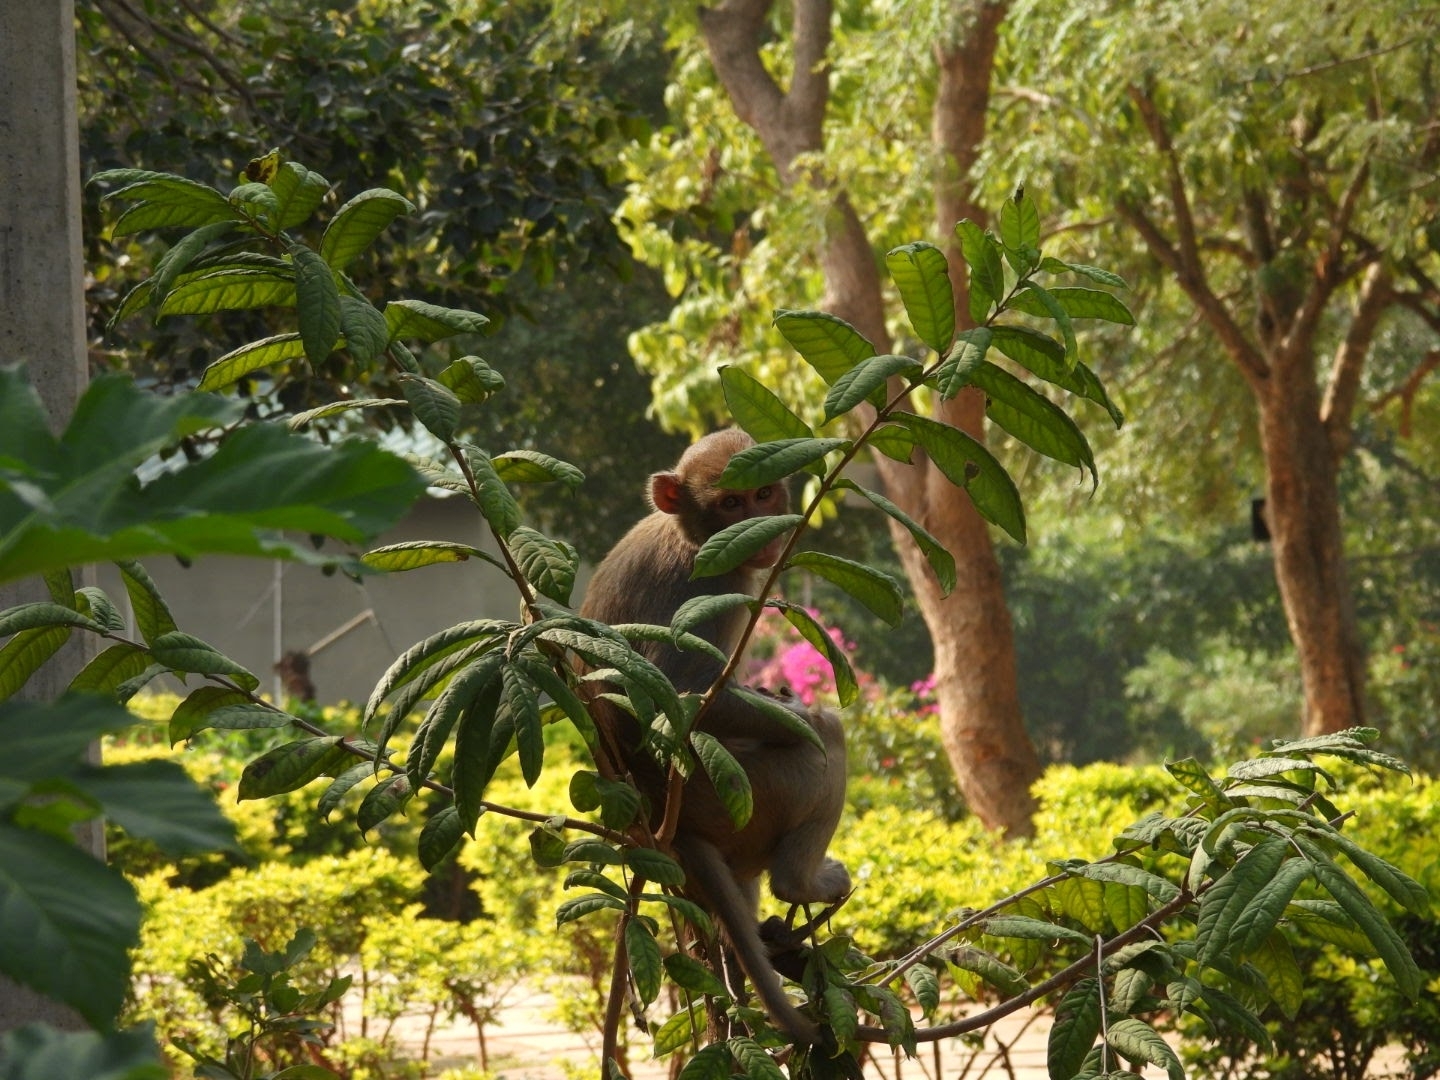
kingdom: Animalia
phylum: Chordata
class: Mammalia
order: Primates
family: Cercopithecidae
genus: Macaca
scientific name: Macaca mulatta
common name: Rhesus monkey
